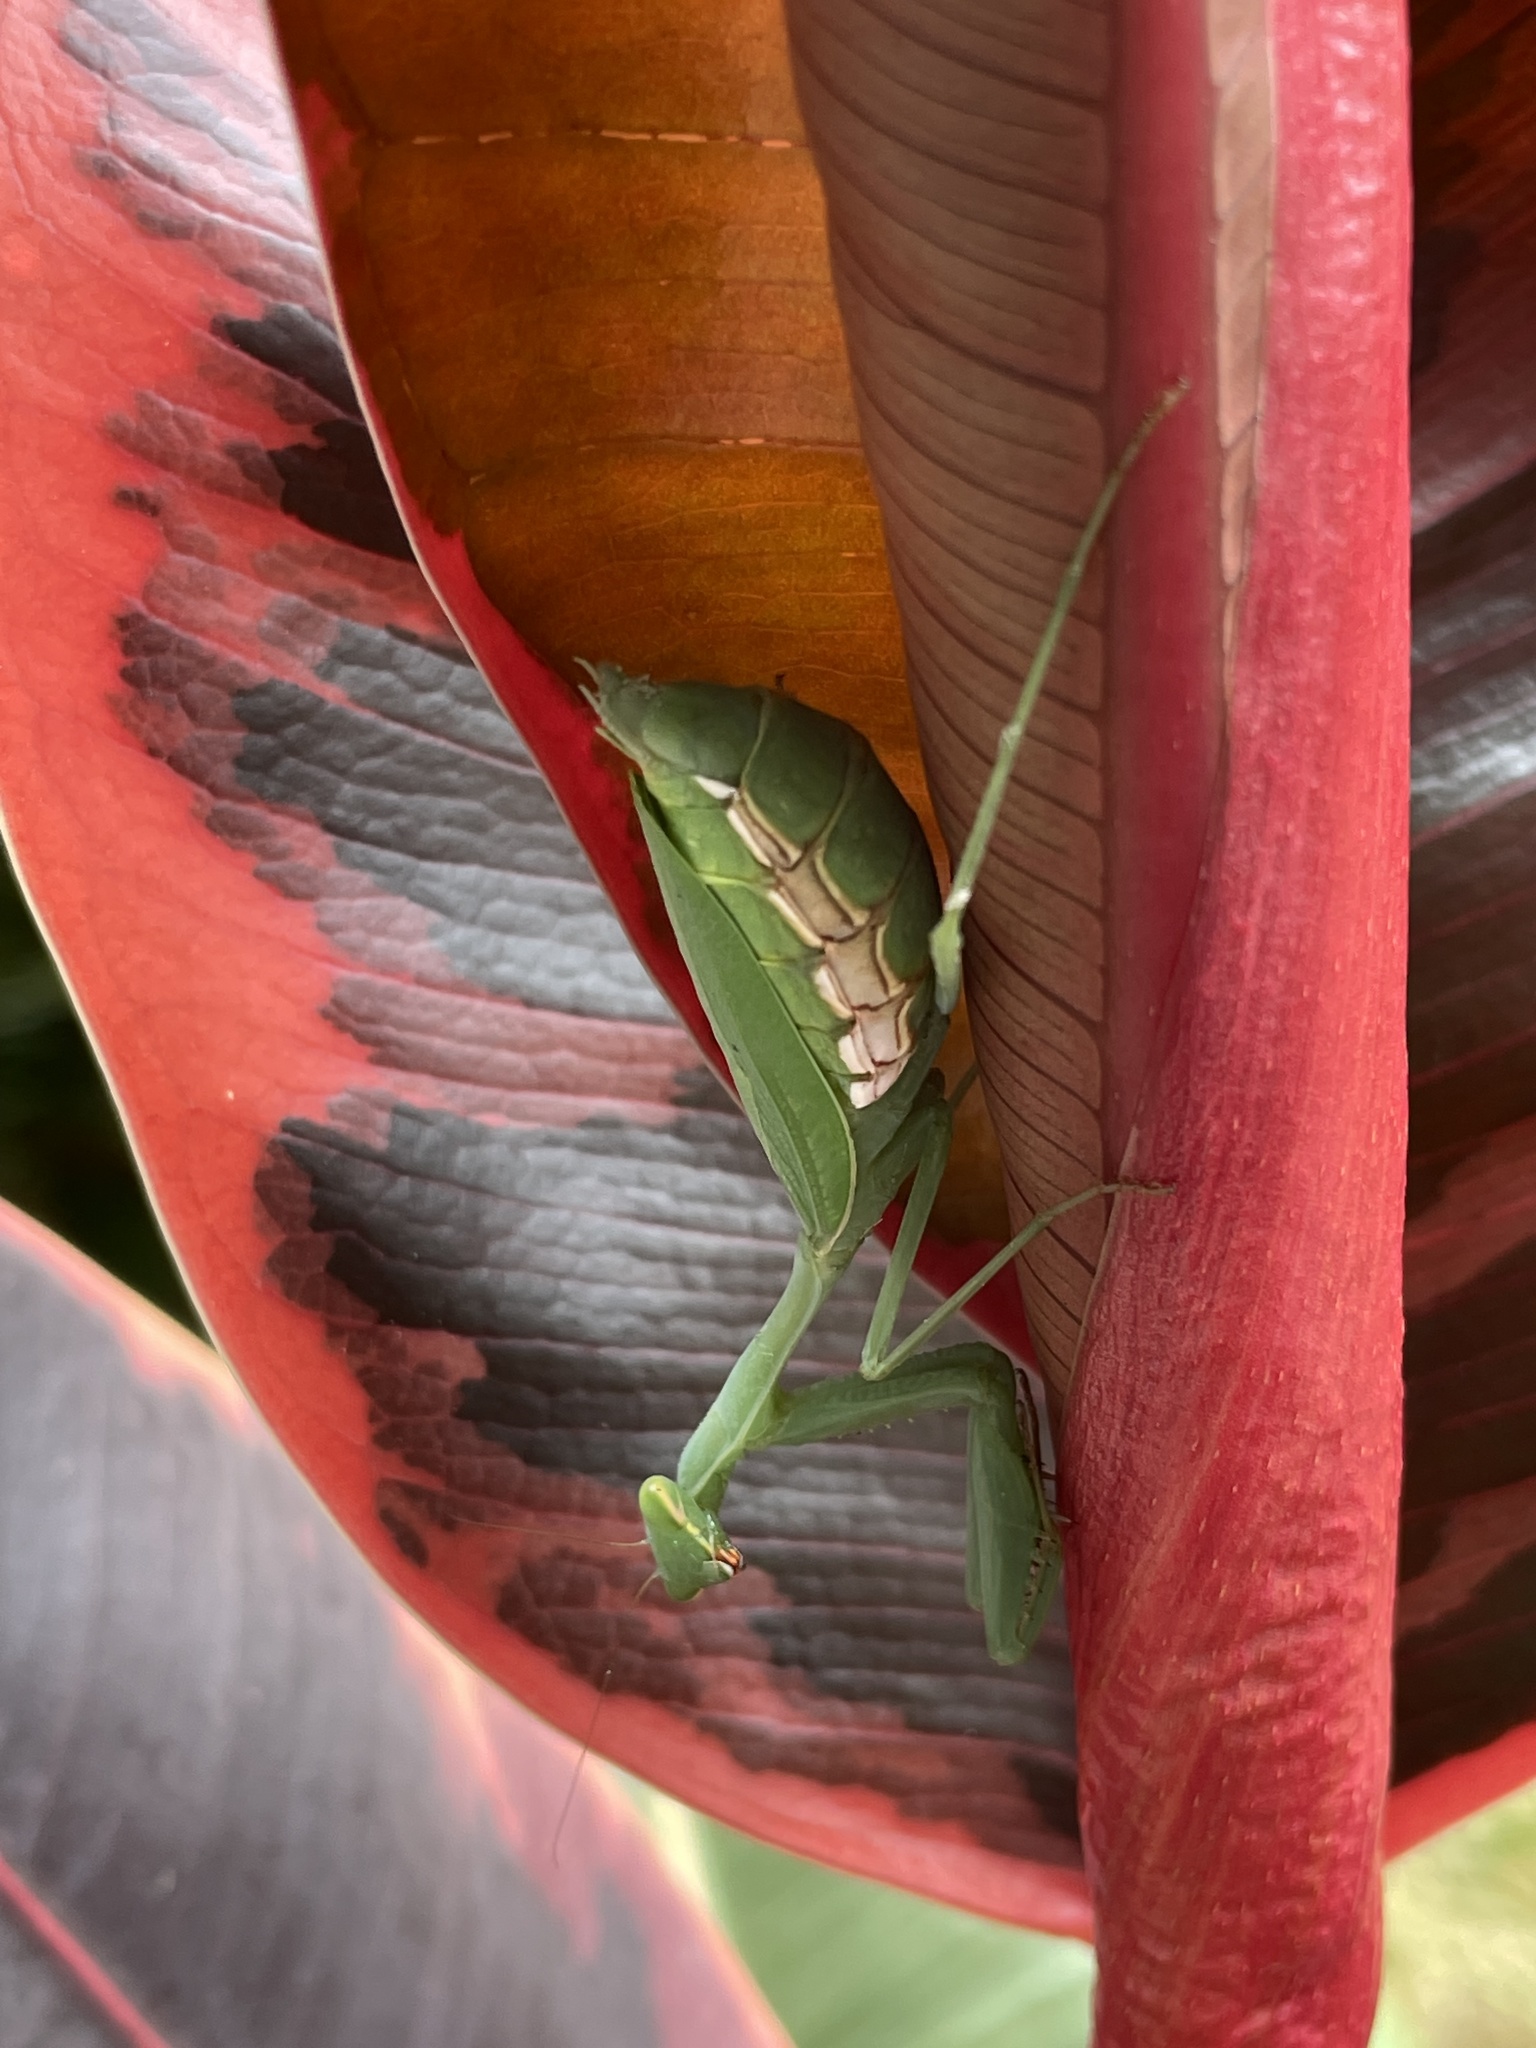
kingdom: Animalia
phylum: Arthropoda
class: Insecta
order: Mantodea
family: Miomantidae
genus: Miomantis
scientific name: Miomantis caffra
